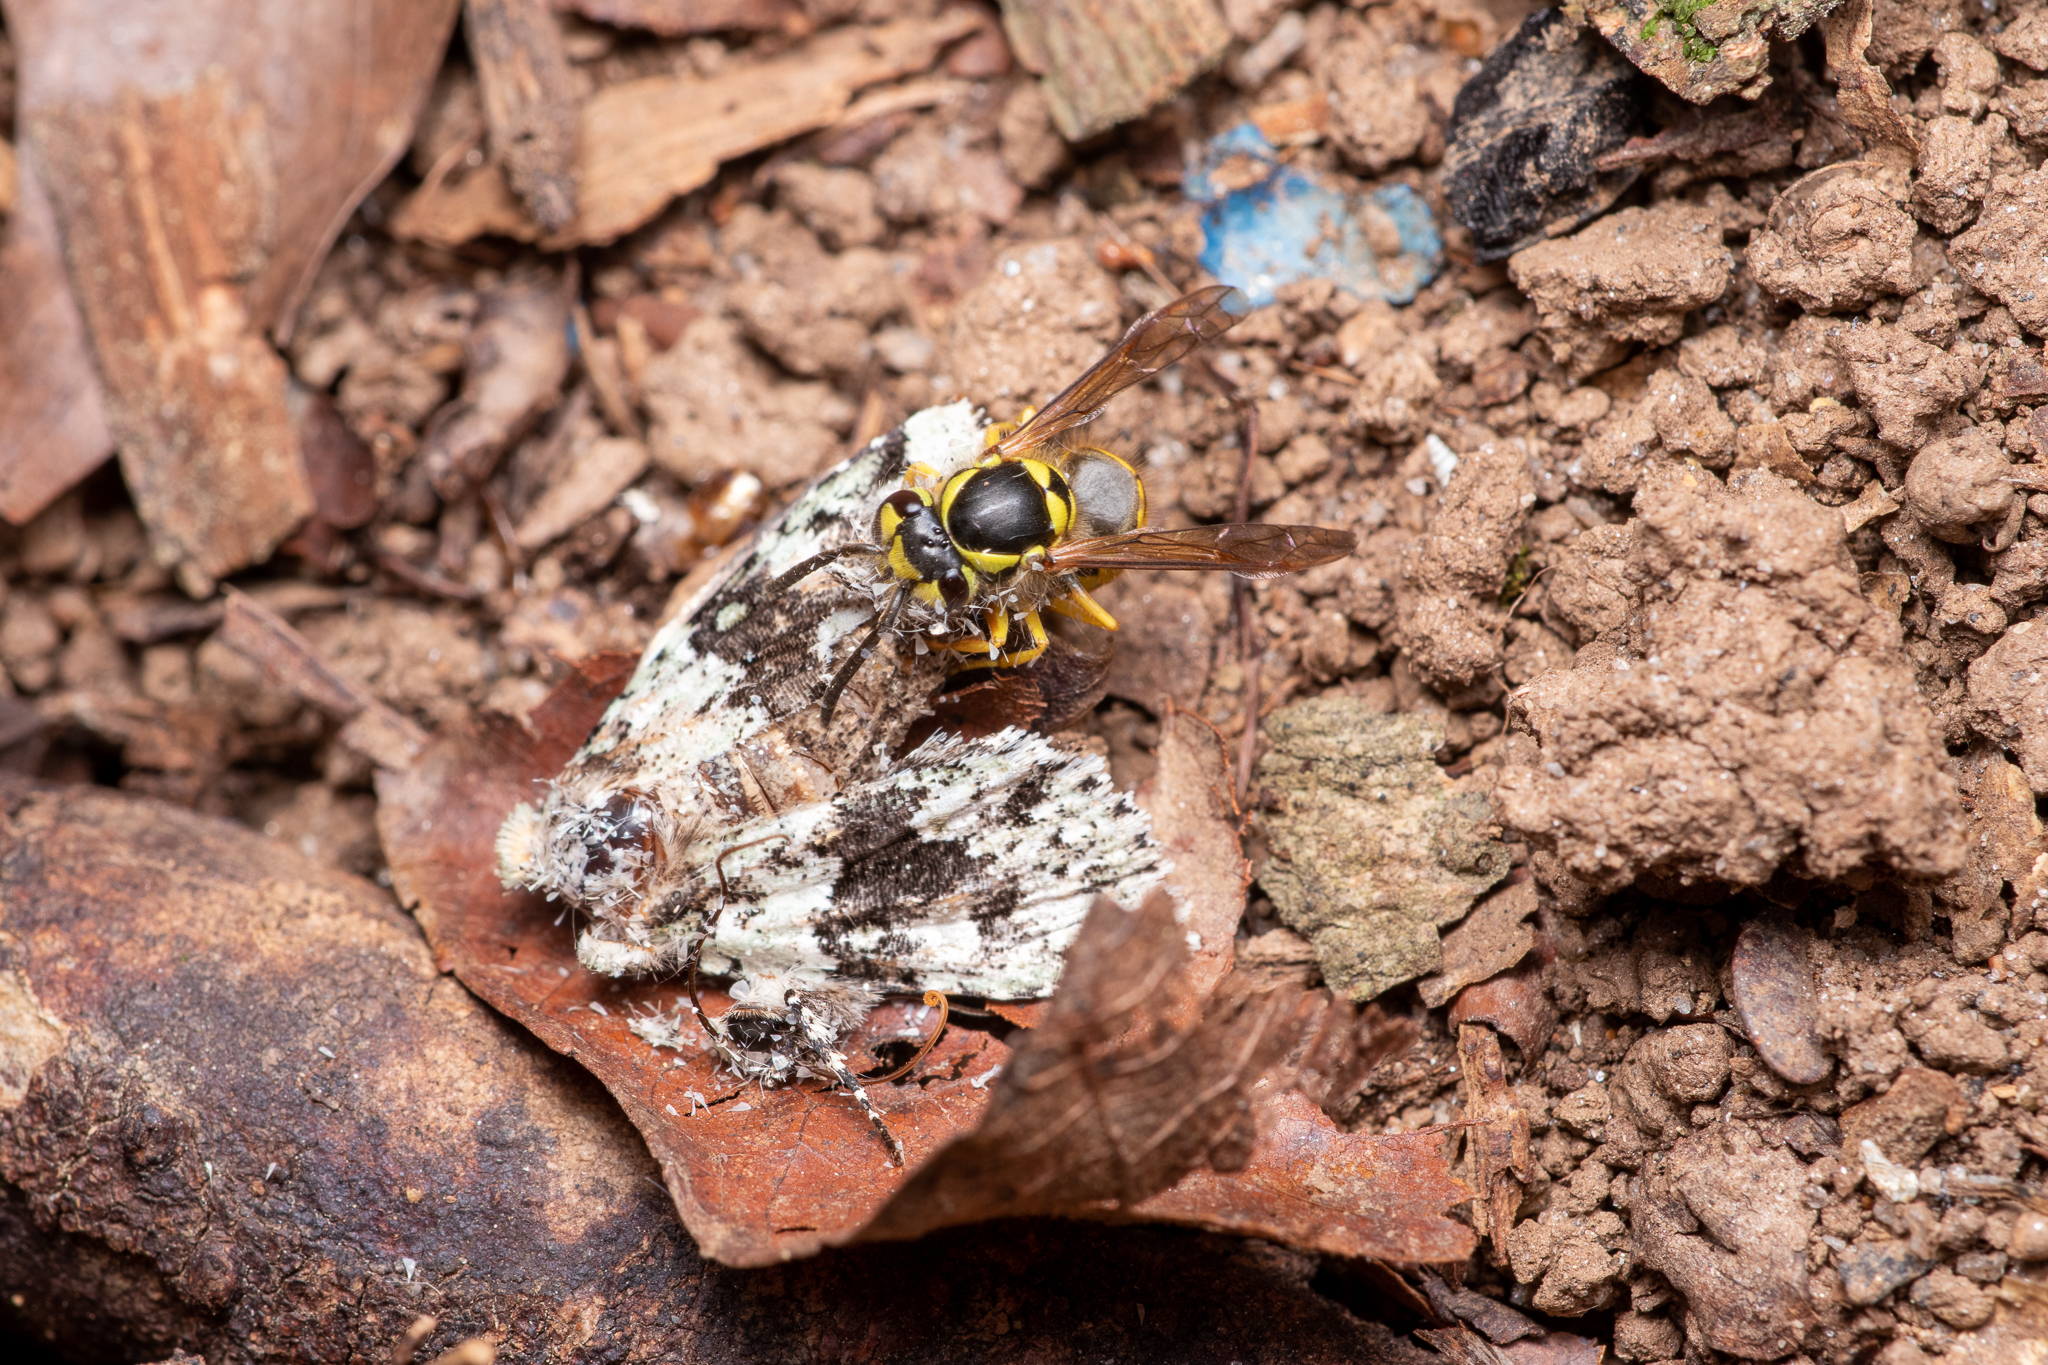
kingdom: Animalia
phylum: Arthropoda
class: Insecta
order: Hymenoptera
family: Vespidae
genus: Vespula
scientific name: Vespula maculifrons
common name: Eastern yellowjacket
